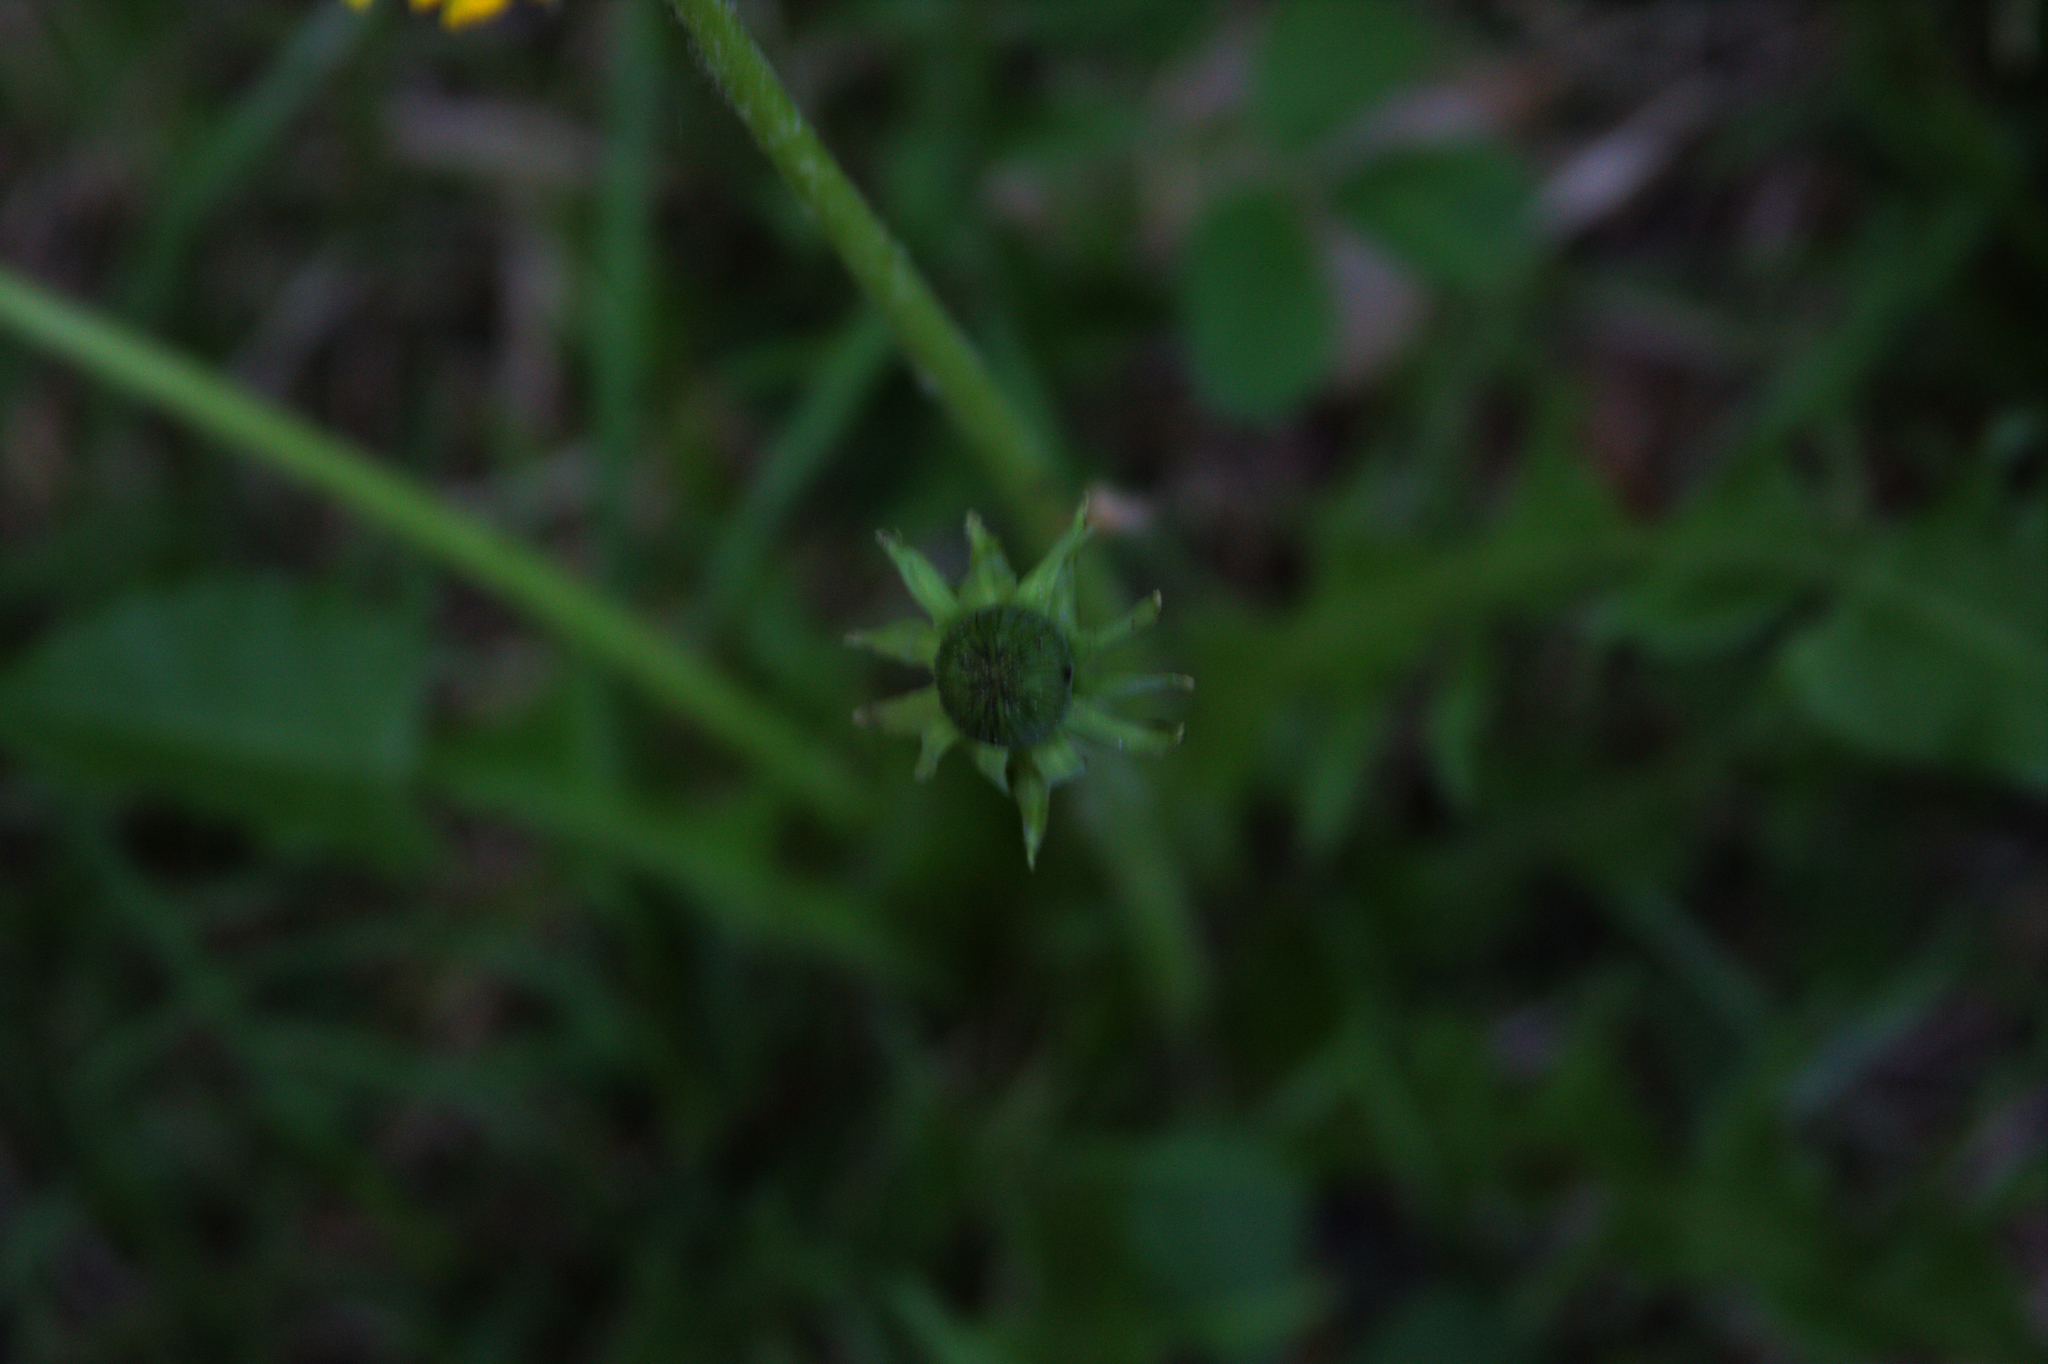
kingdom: Plantae
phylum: Tracheophyta
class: Magnoliopsida
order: Asterales
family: Asteraceae
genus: Taraxacum
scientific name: Taraxacum officinale
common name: Common dandelion
